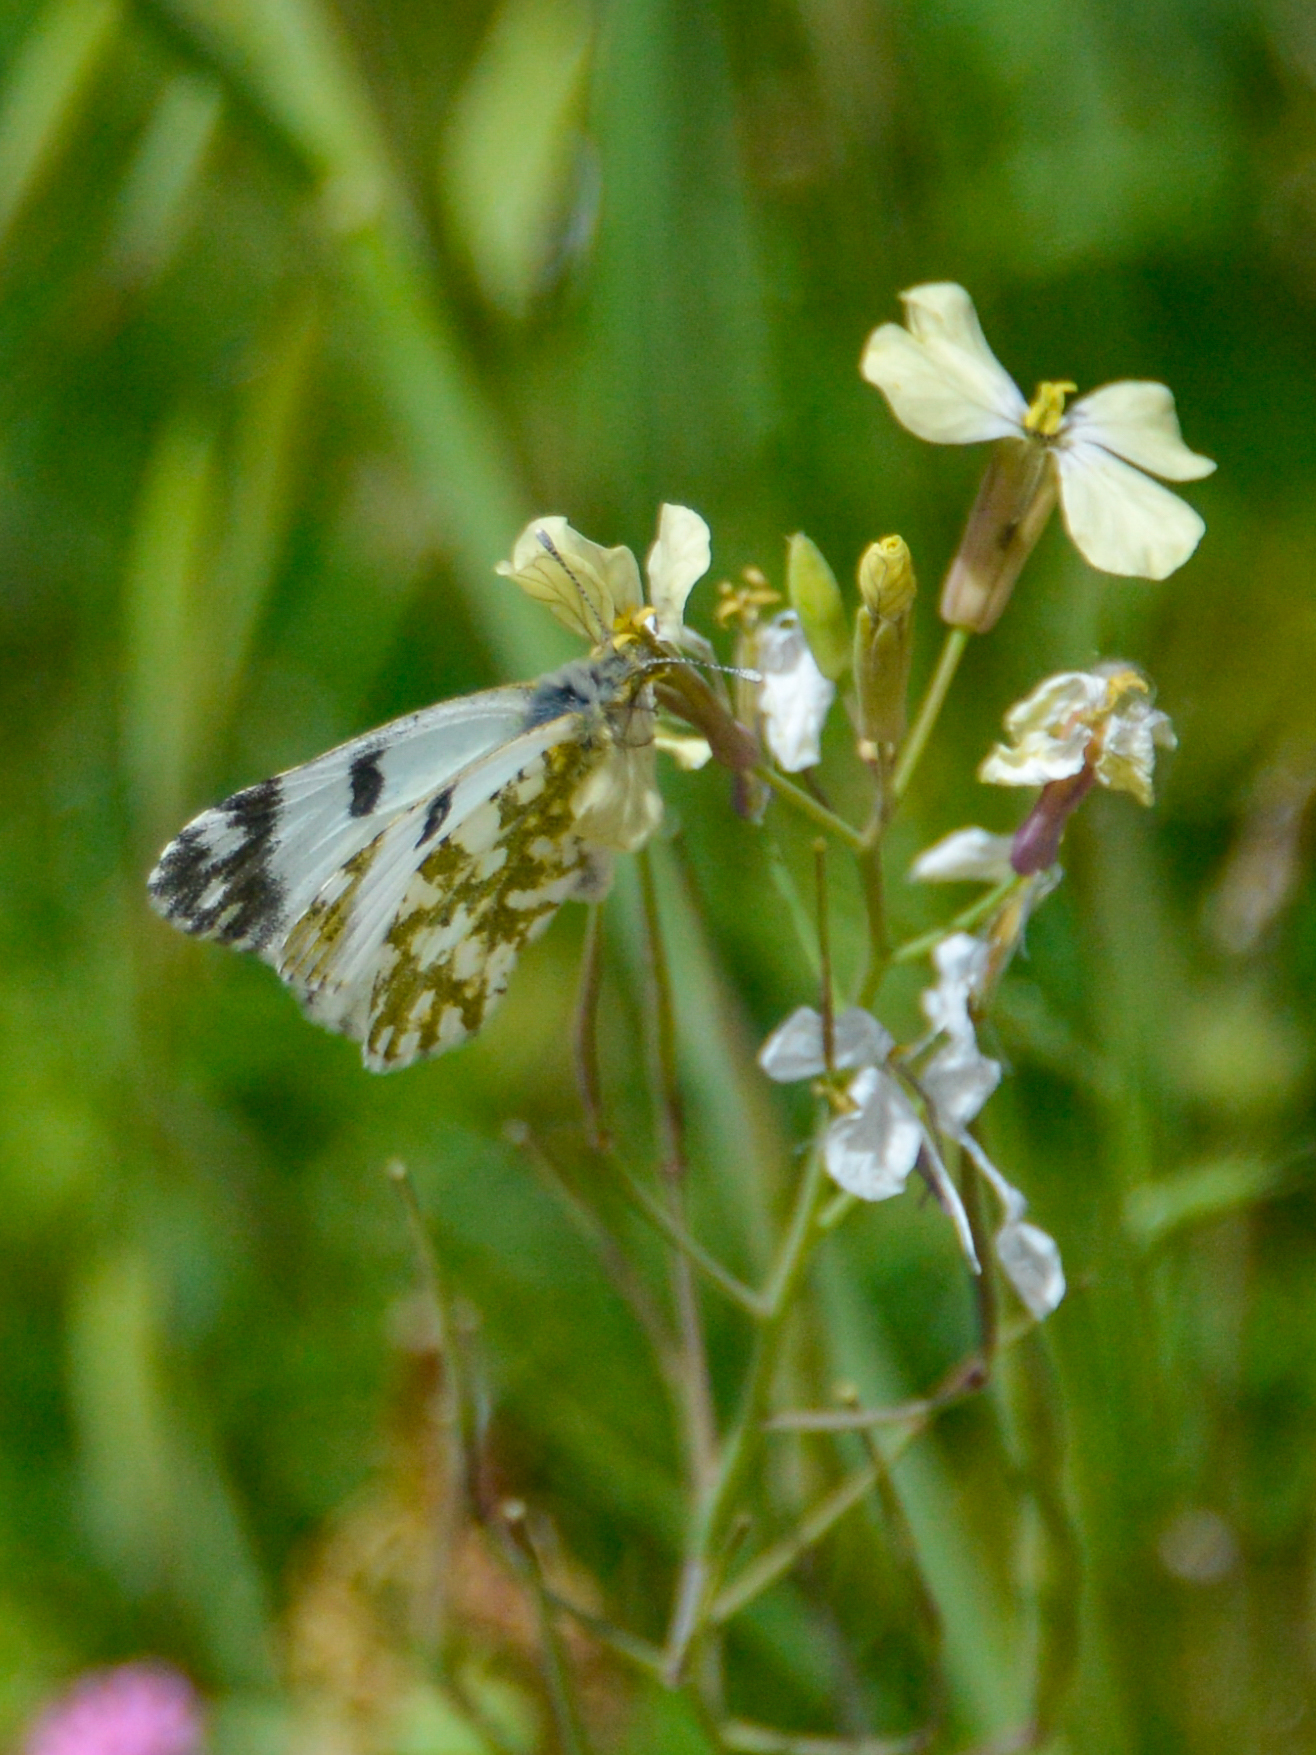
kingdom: Animalia
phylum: Arthropoda
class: Insecta
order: Lepidoptera
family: Pieridae
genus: Euchloe
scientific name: Euchloe crameri
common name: Western dappled white
